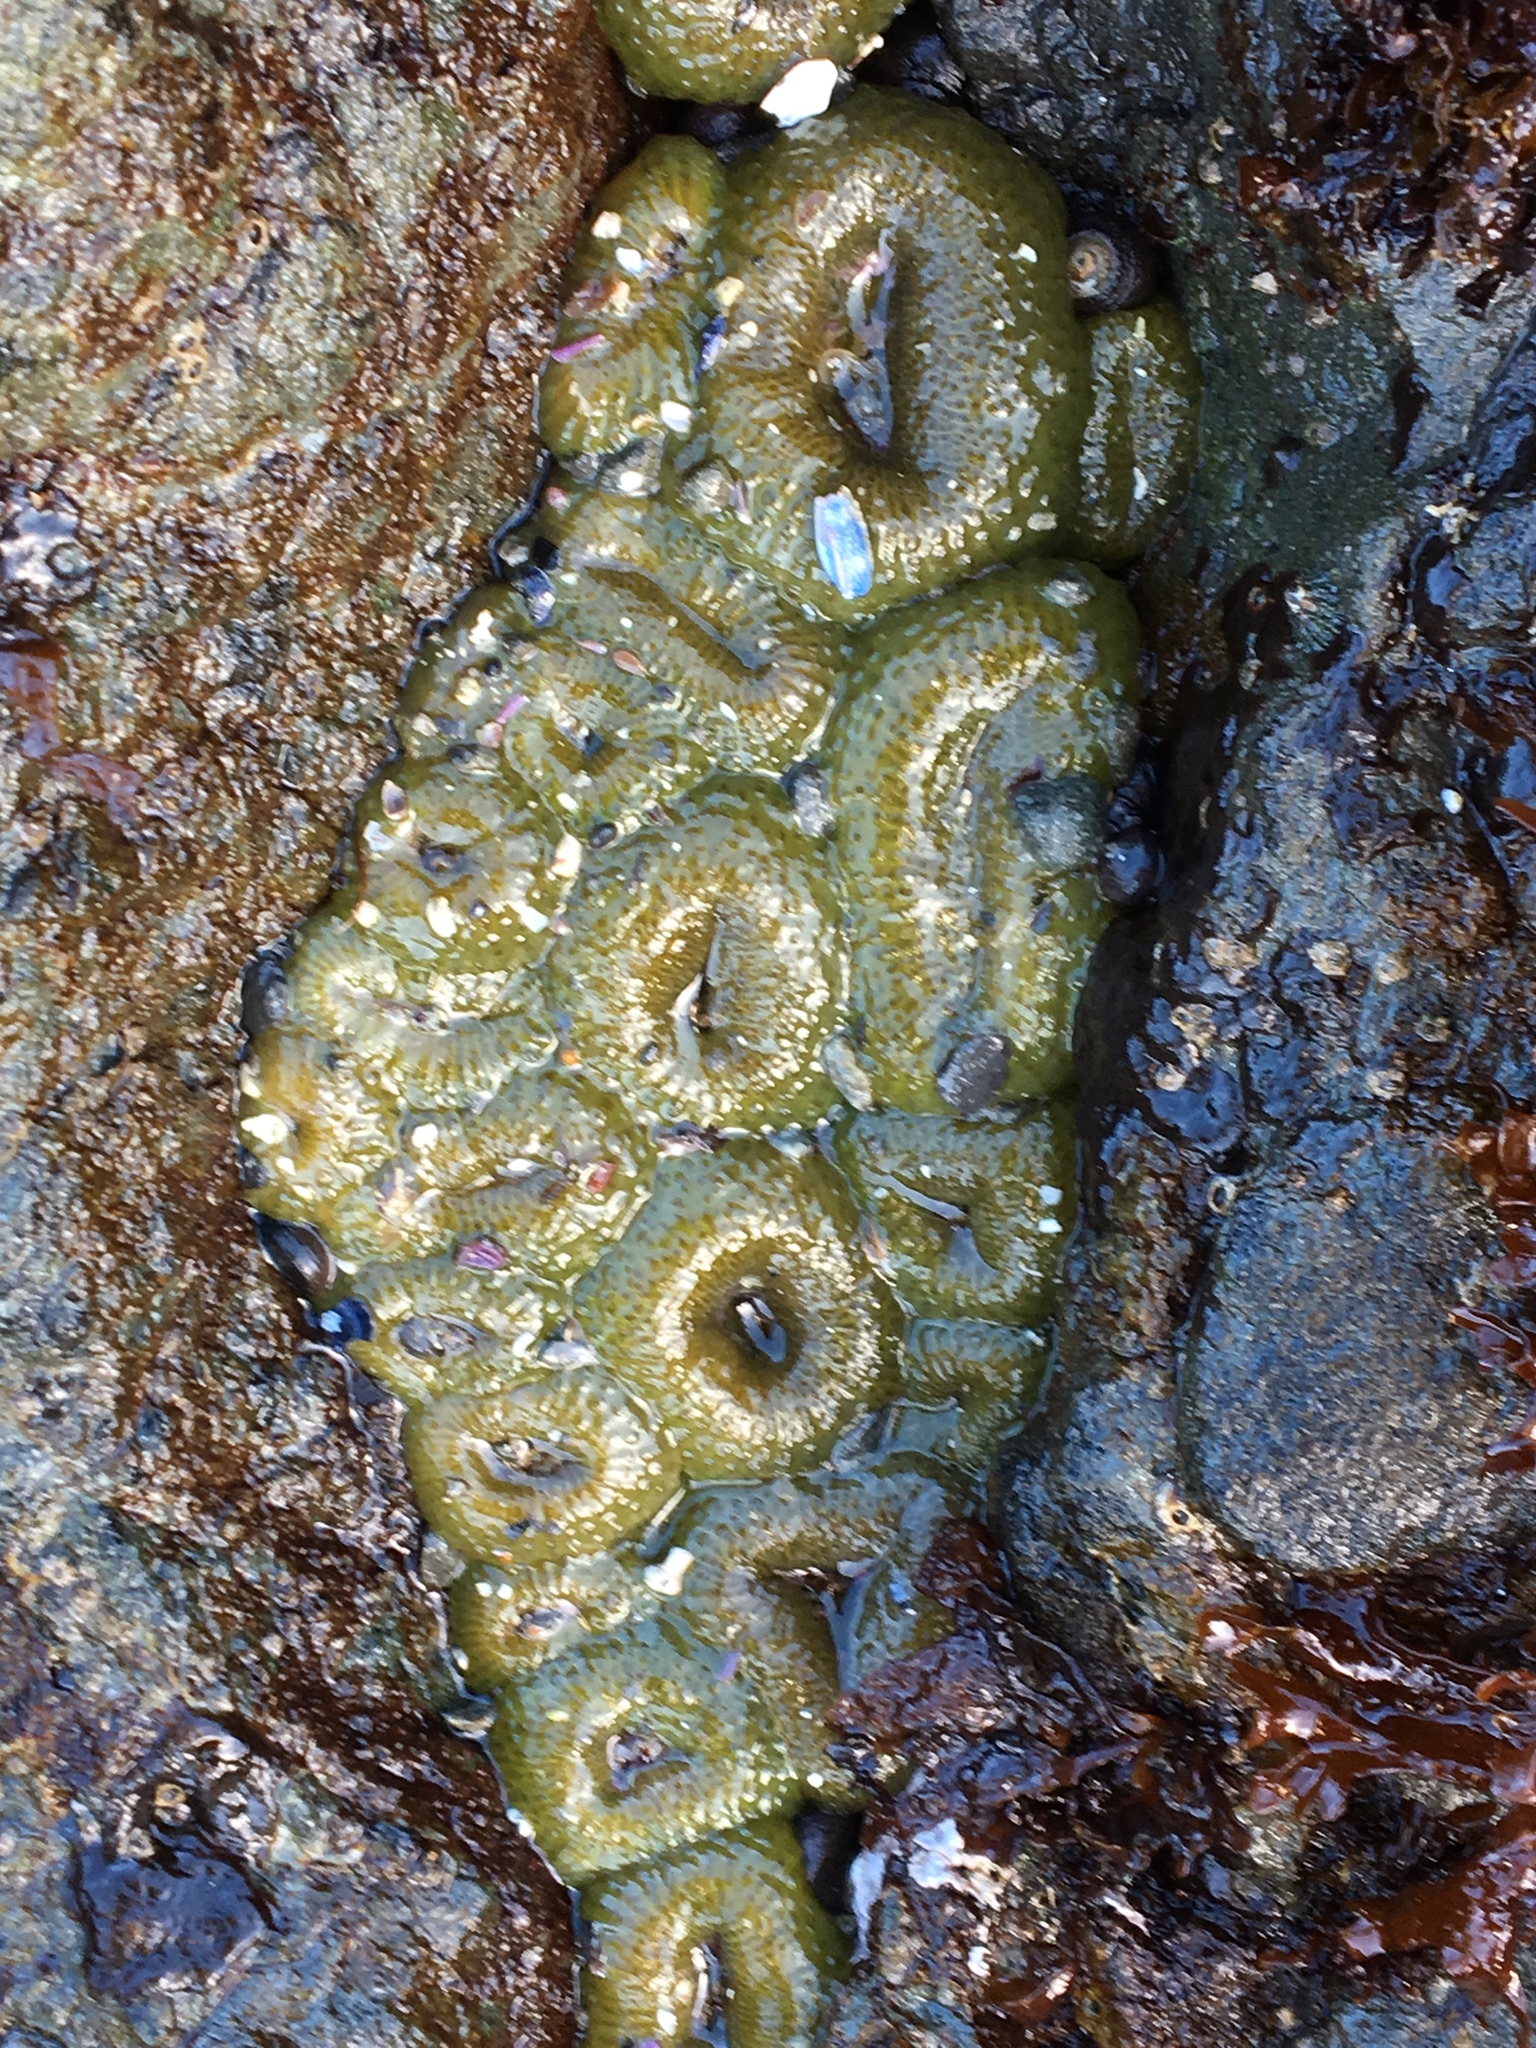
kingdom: Animalia
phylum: Cnidaria
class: Anthozoa
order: Actiniaria
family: Actiniidae
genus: Anthopleura
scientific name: Anthopleura elegantissima
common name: Clonal anemone
